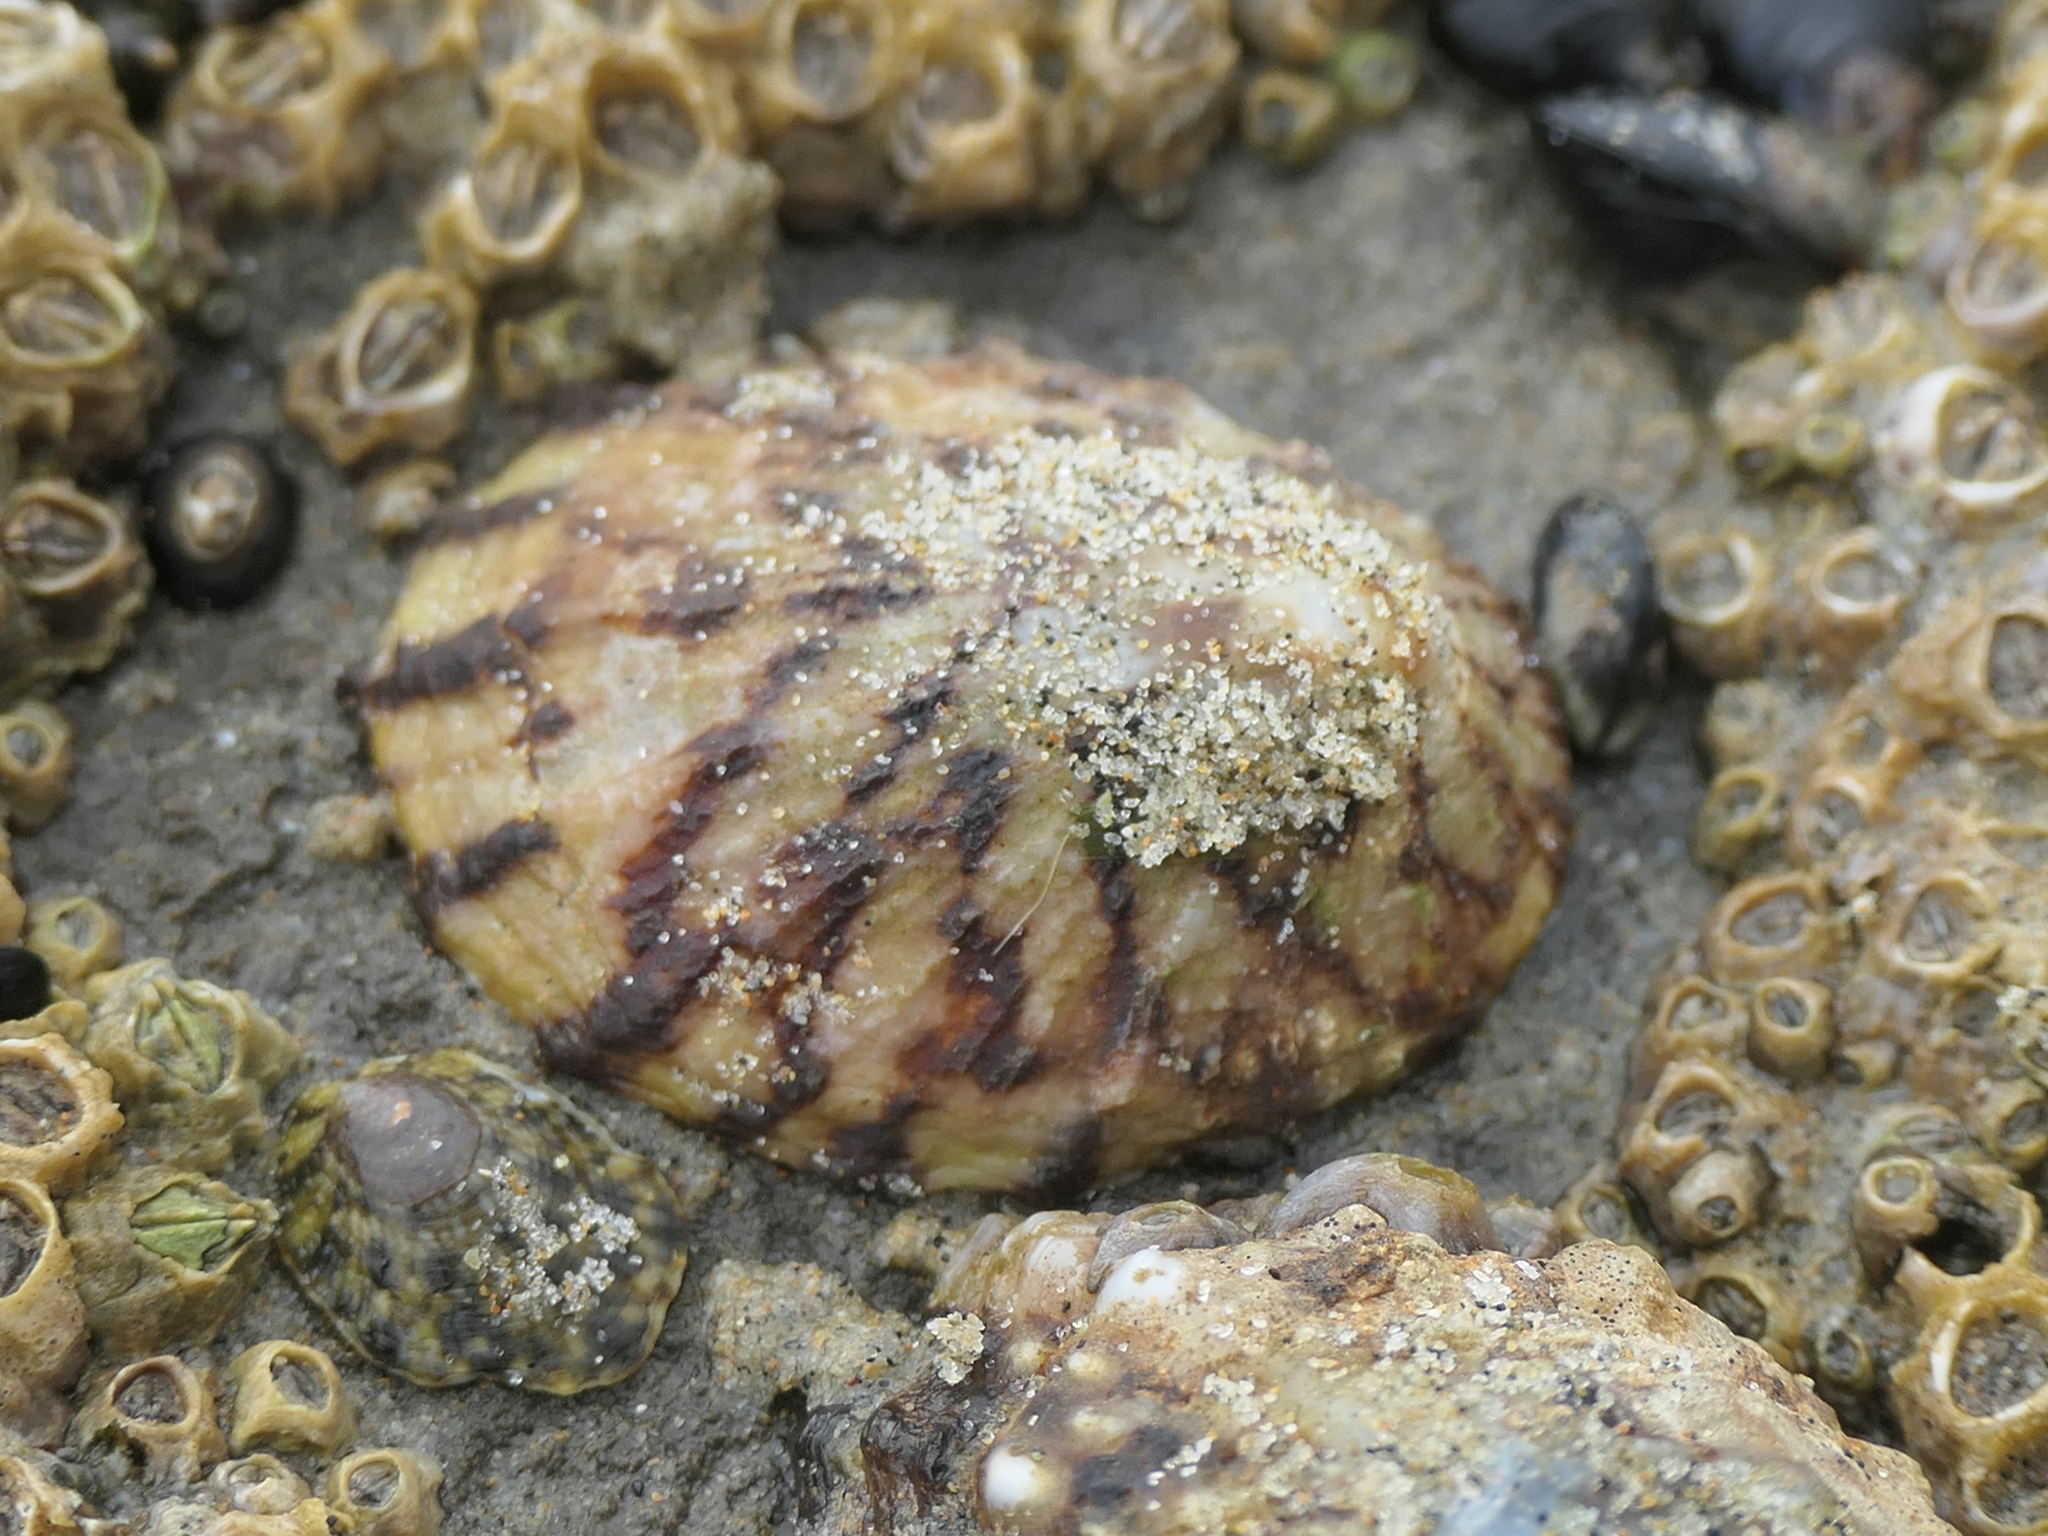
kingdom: Animalia
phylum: Mollusca
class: Gastropoda
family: Nacellidae
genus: Cellana
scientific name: Cellana radians
